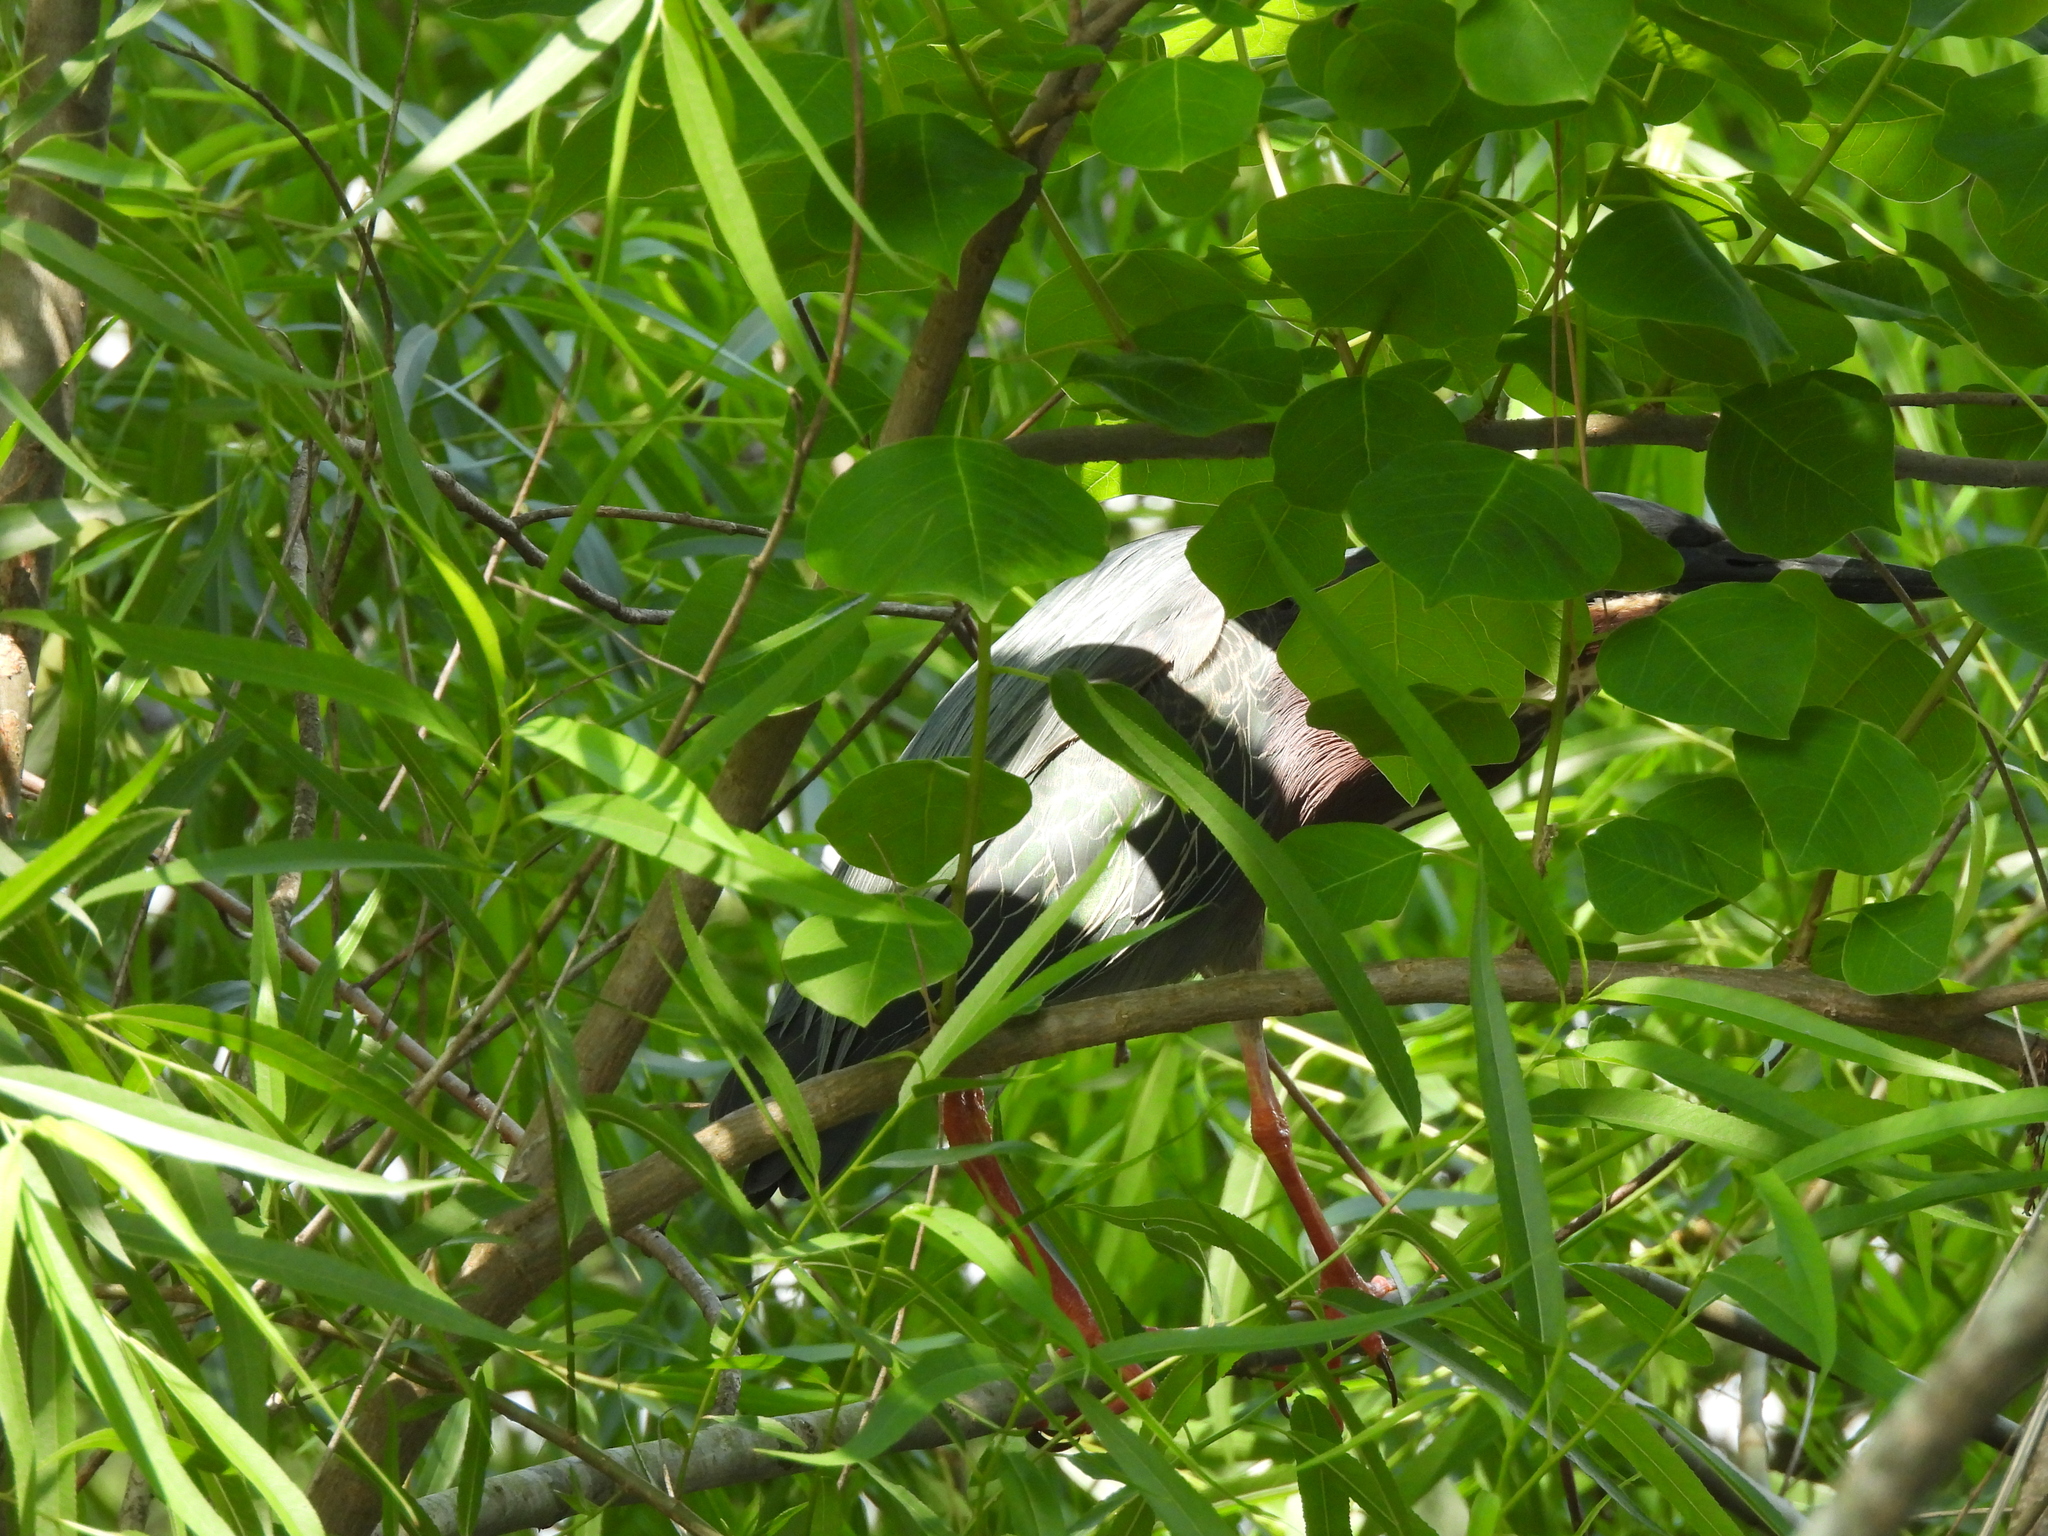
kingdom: Animalia
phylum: Chordata
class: Aves
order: Pelecaniformes
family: Ardeidae
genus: Butorides
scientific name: Butorides virescens
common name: Green heron
